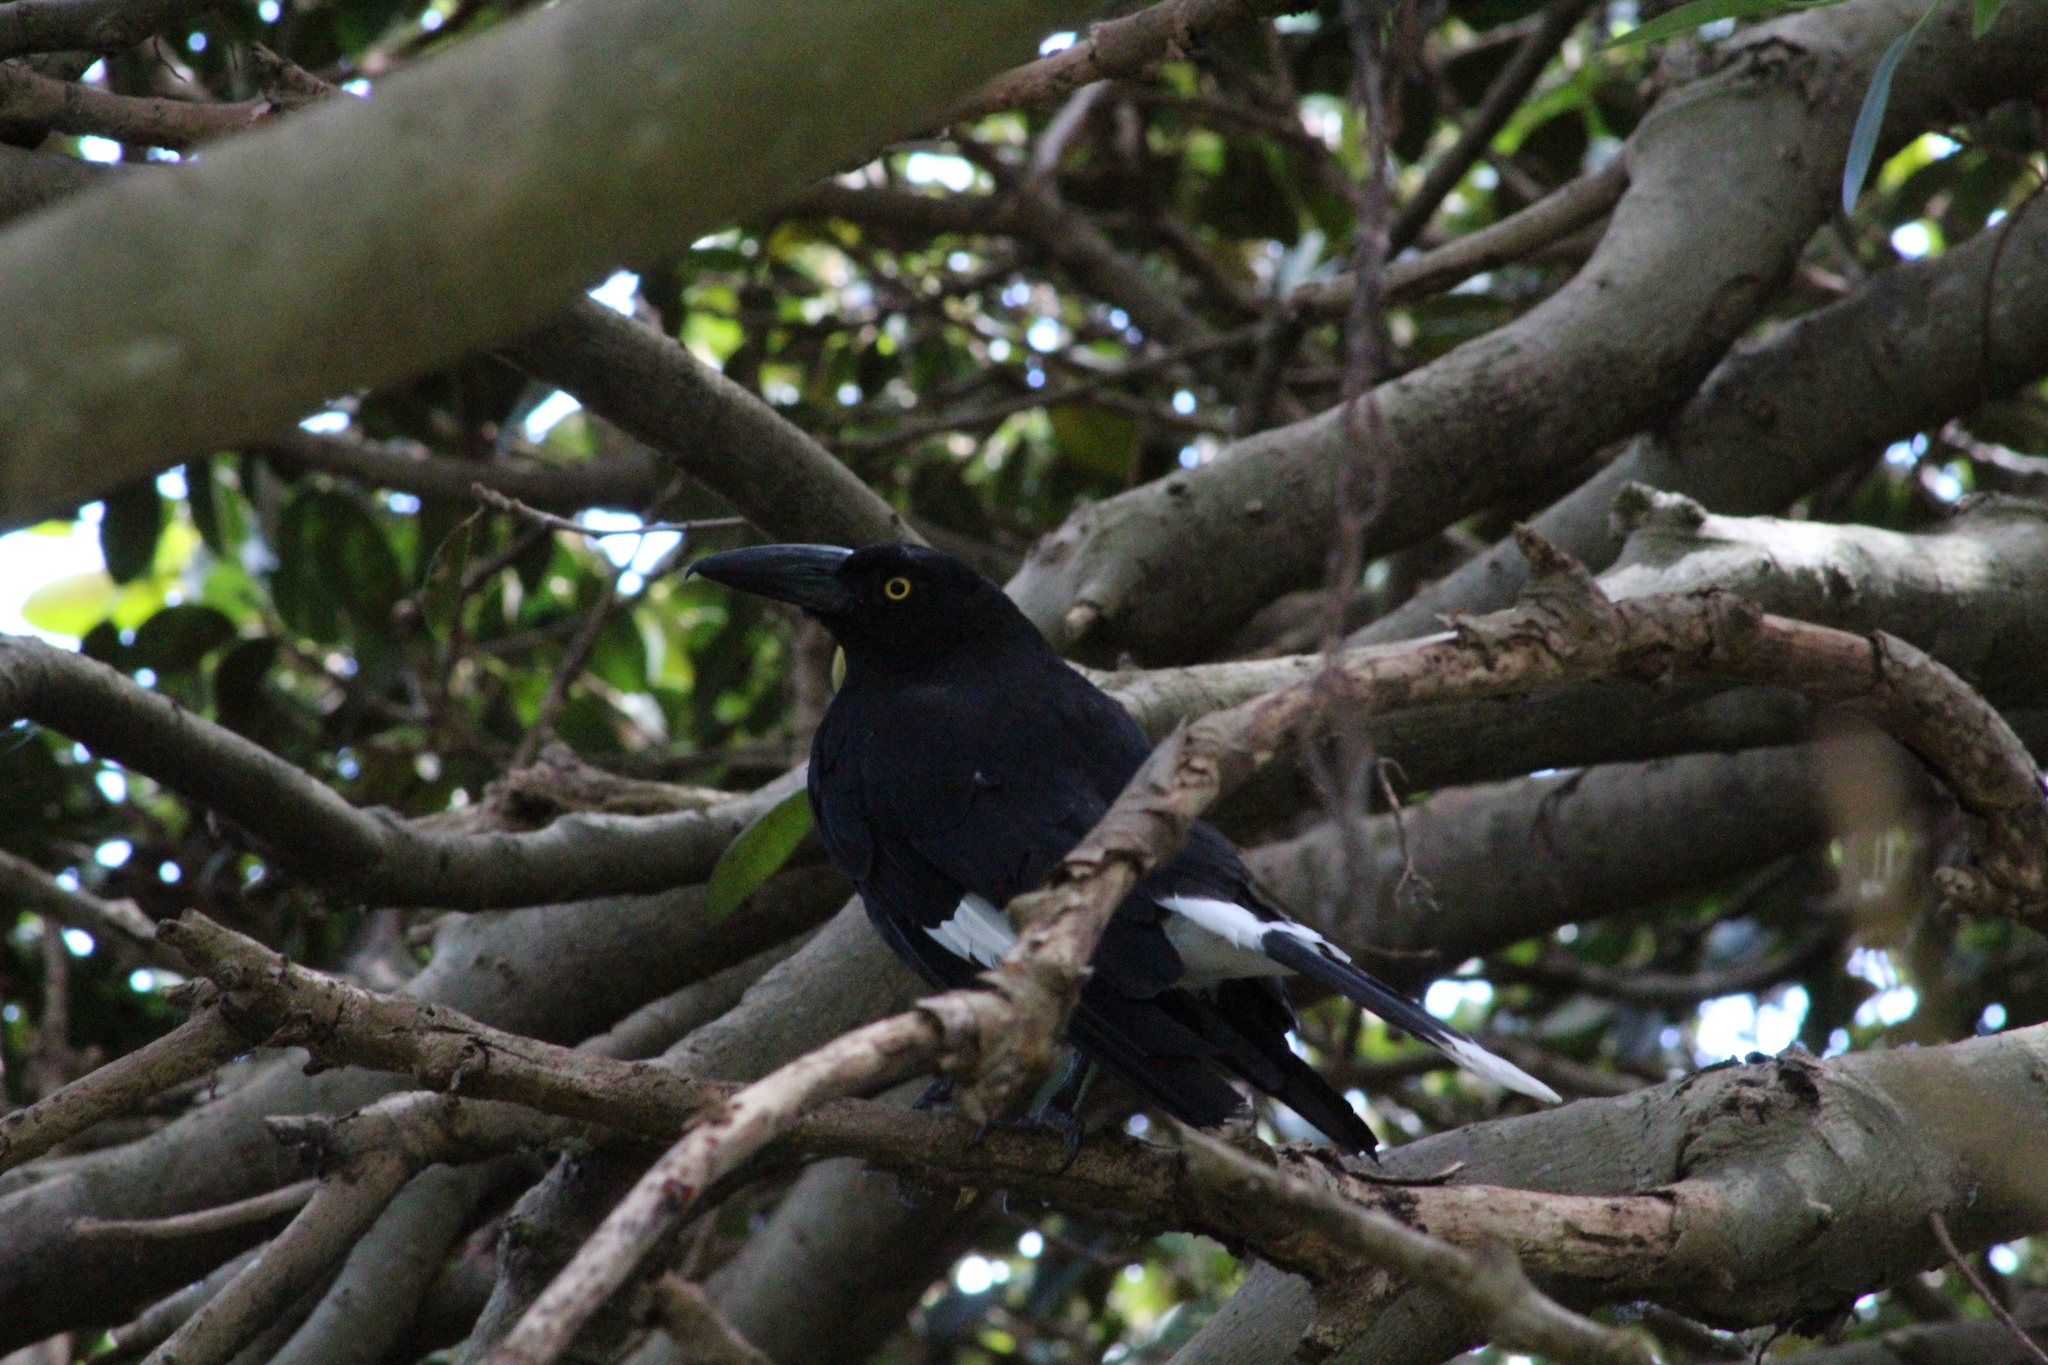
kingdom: Animalia
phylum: Chordata
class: Aves
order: Passeriformes
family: Cracticidae
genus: Strepera
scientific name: Strepera graculina
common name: Pied currawong
